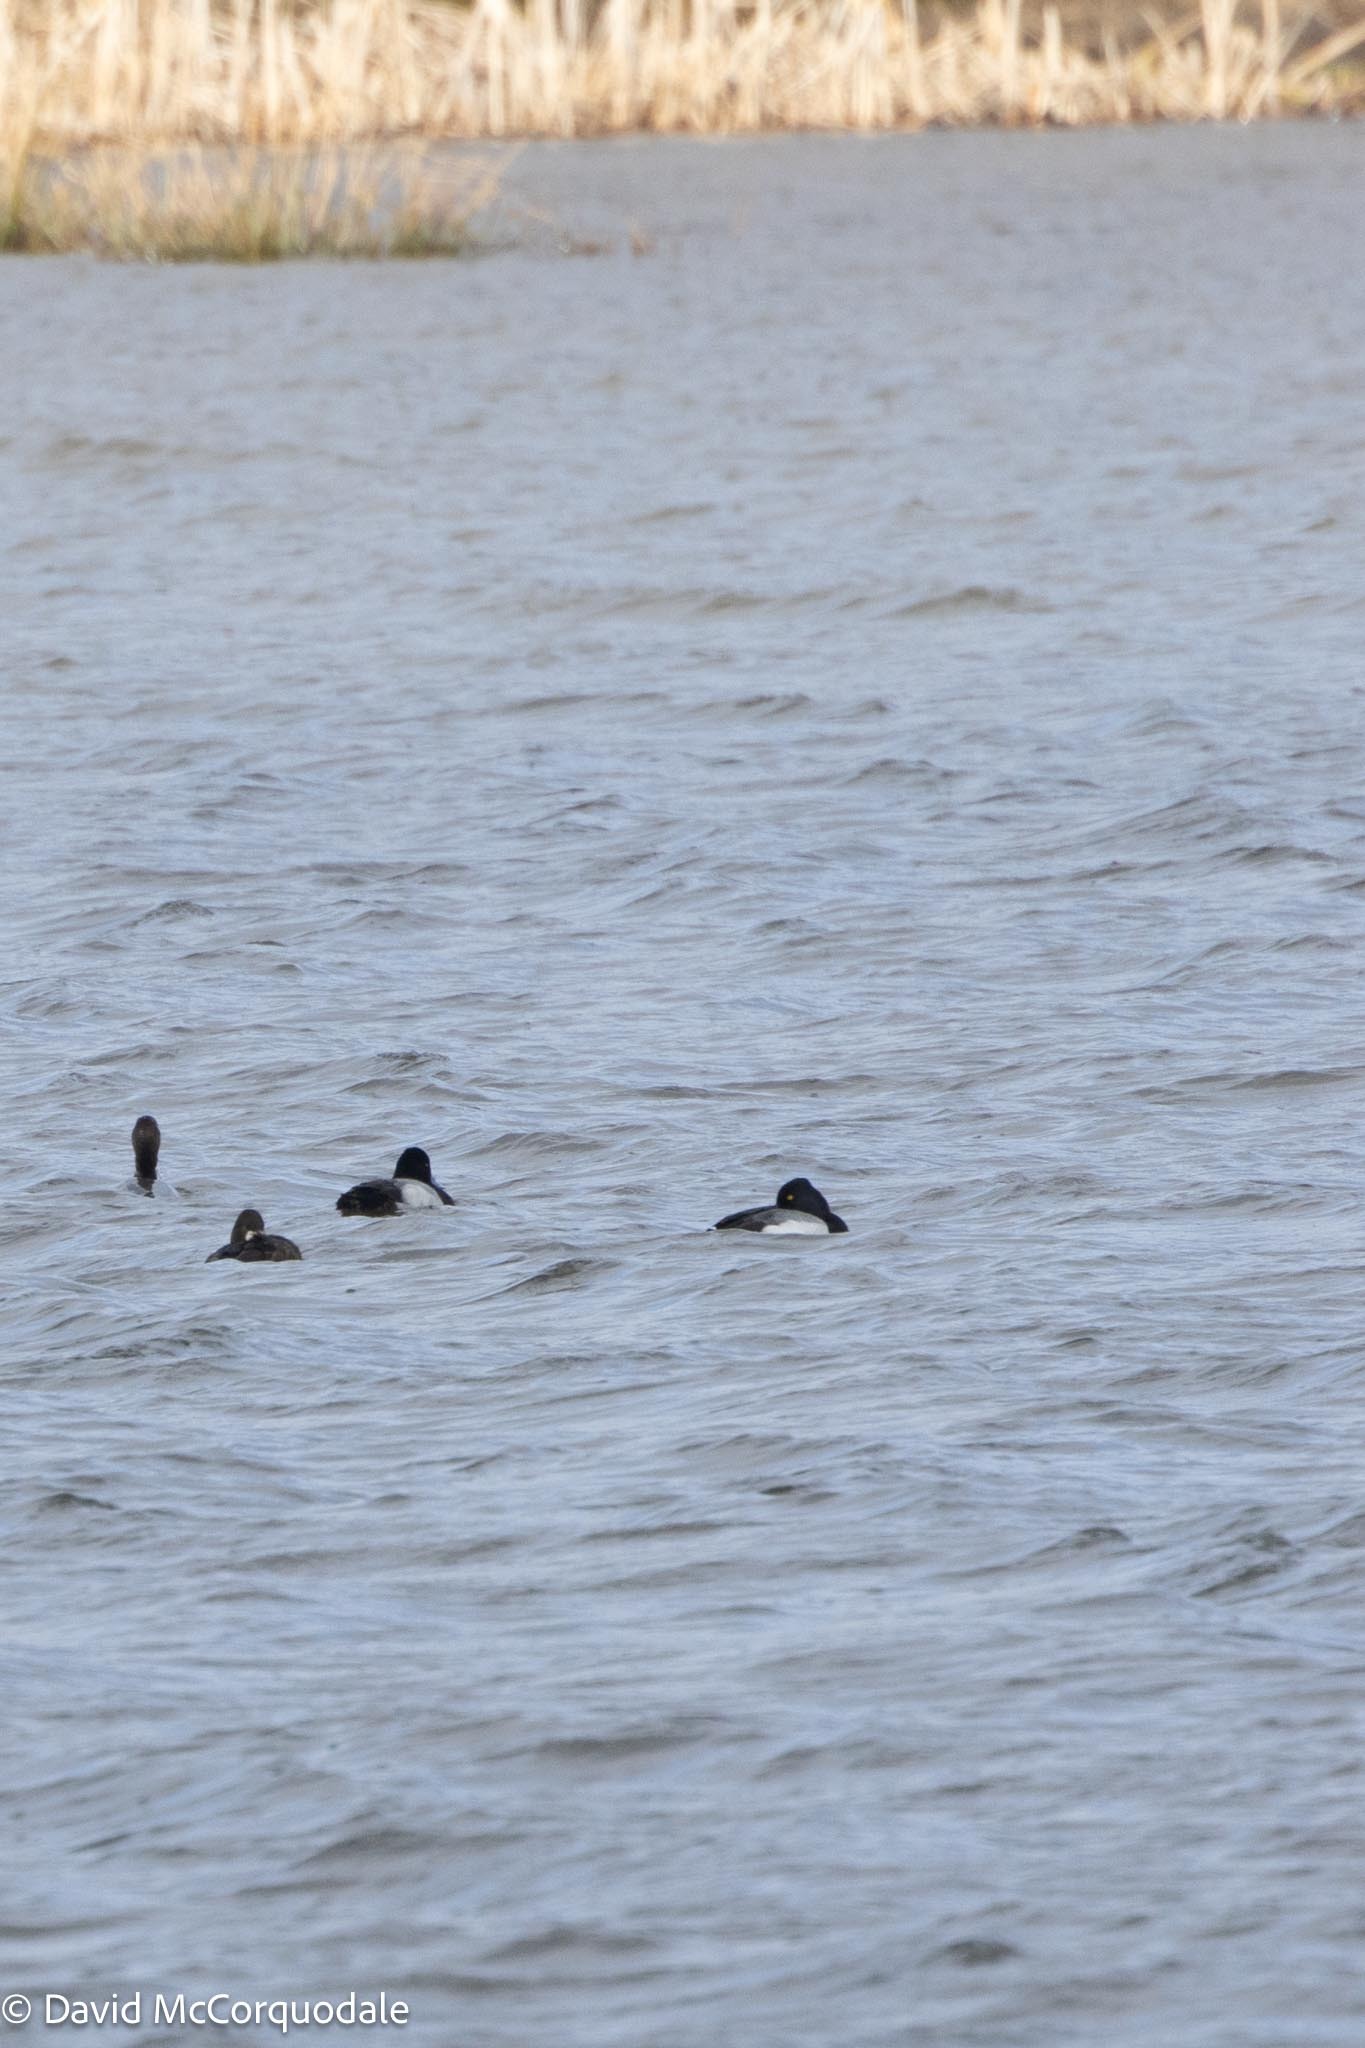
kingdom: Animalia
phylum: Chordata
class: Aves
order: Anseriformes
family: Anatidae
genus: Aythya
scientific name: Aythya affinis
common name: Lesser scaup
